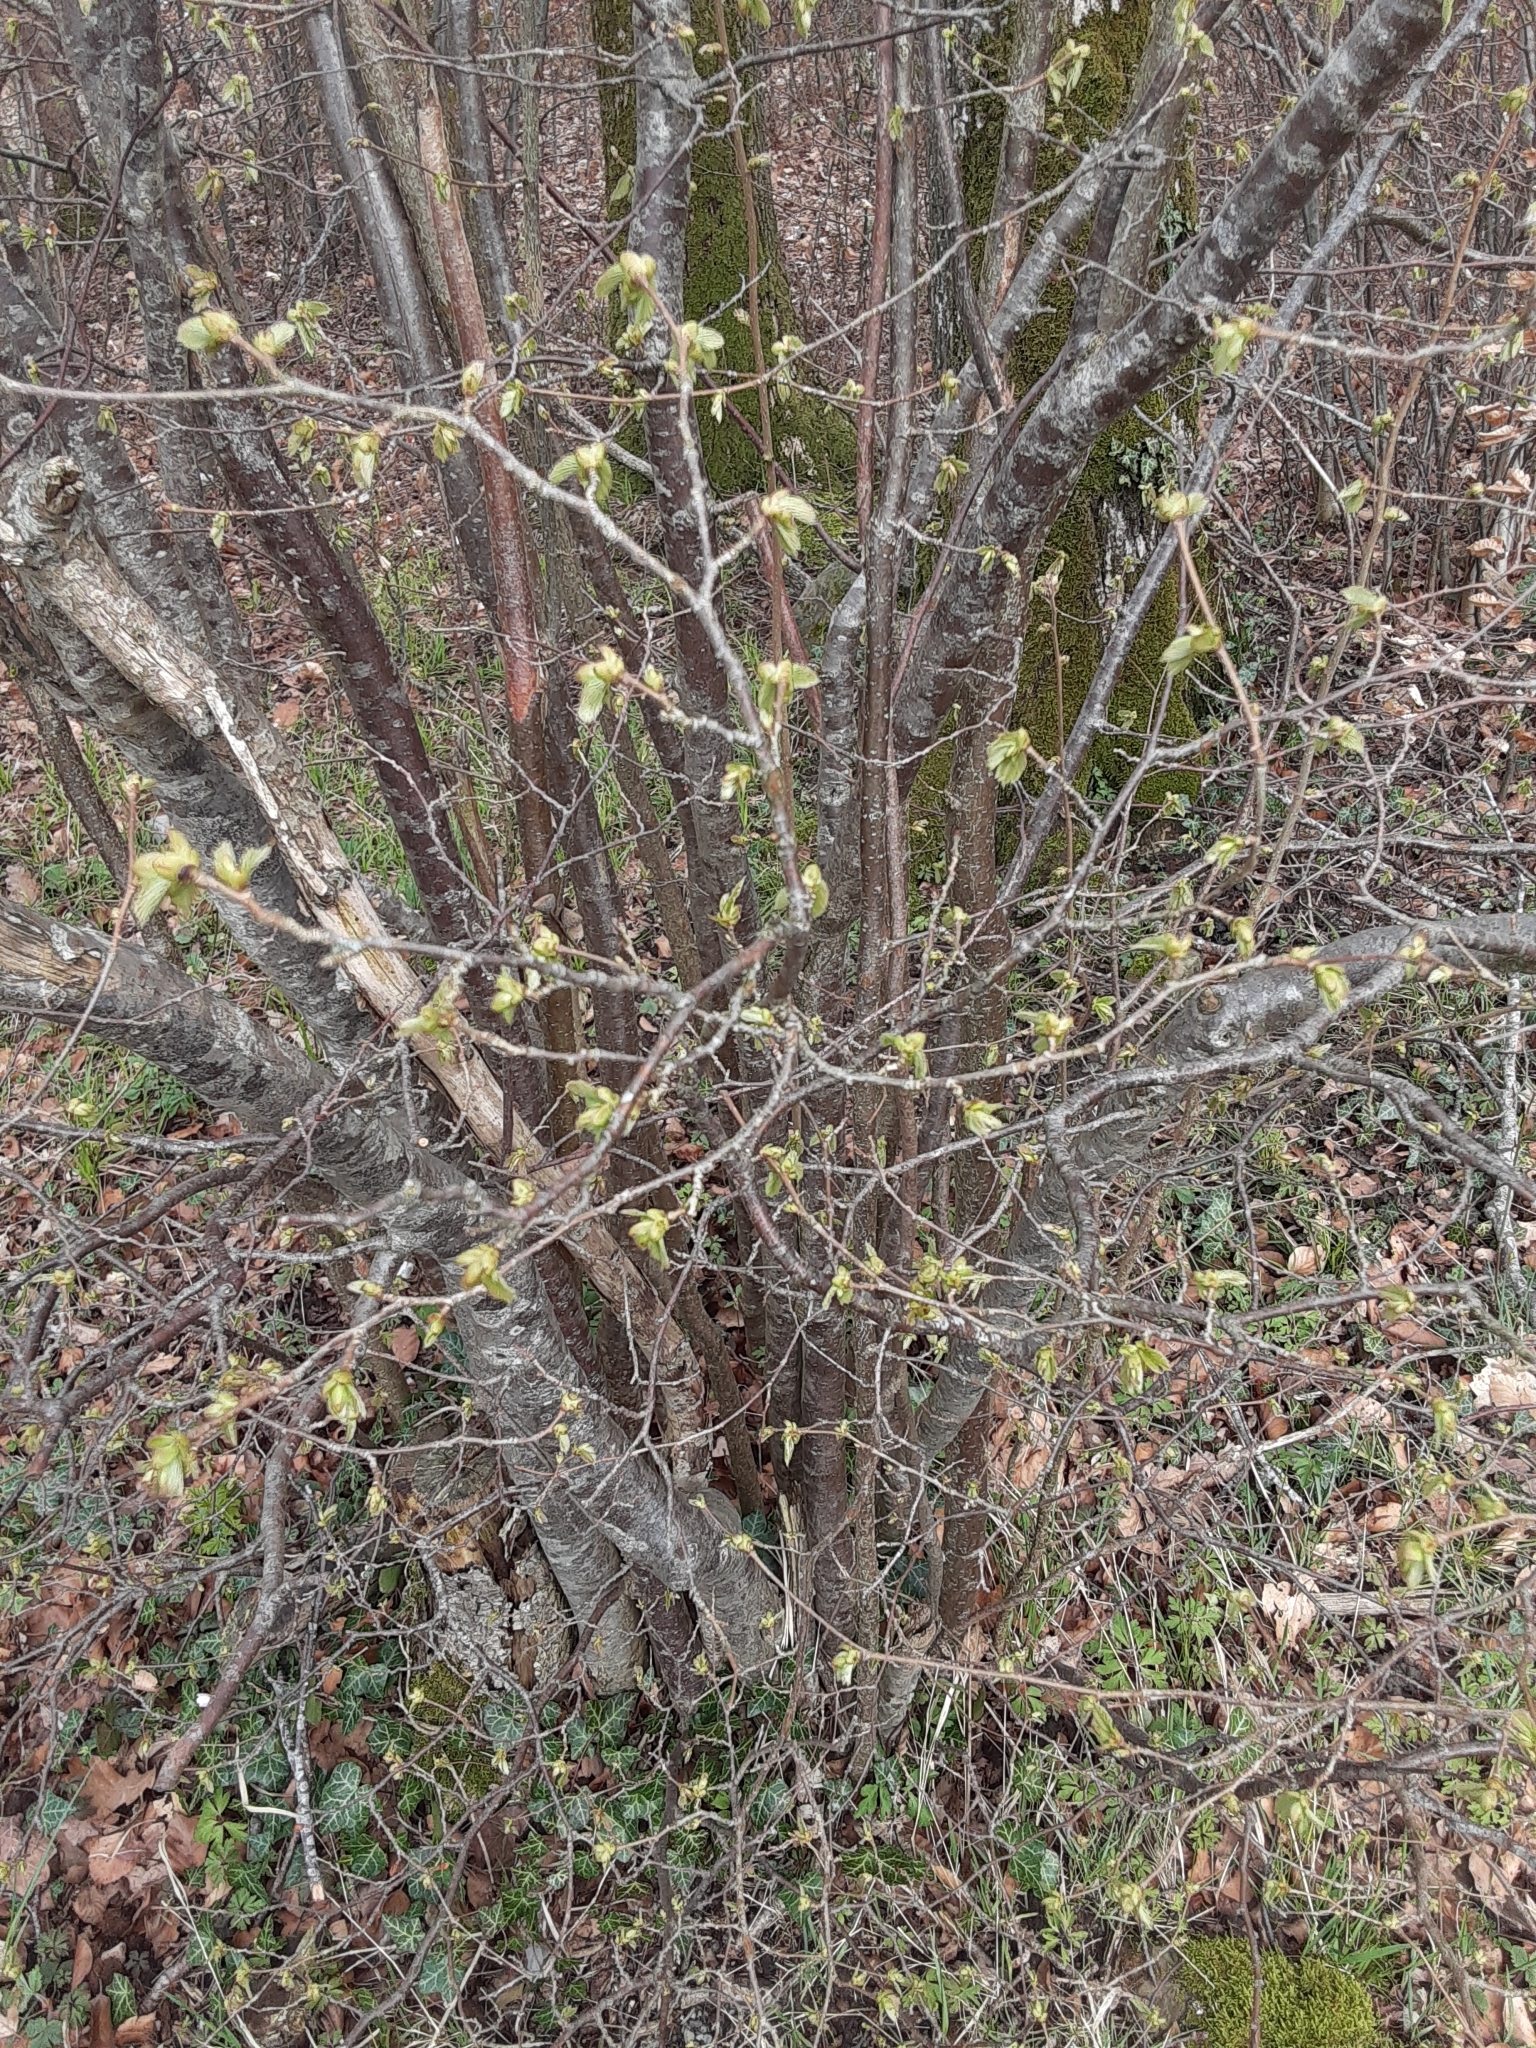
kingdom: Plantae
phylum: Tracheophyta
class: Magnoliopsida
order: Fagales
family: Betulaceae
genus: Corylus
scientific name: Corylus avellana
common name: European hazel
